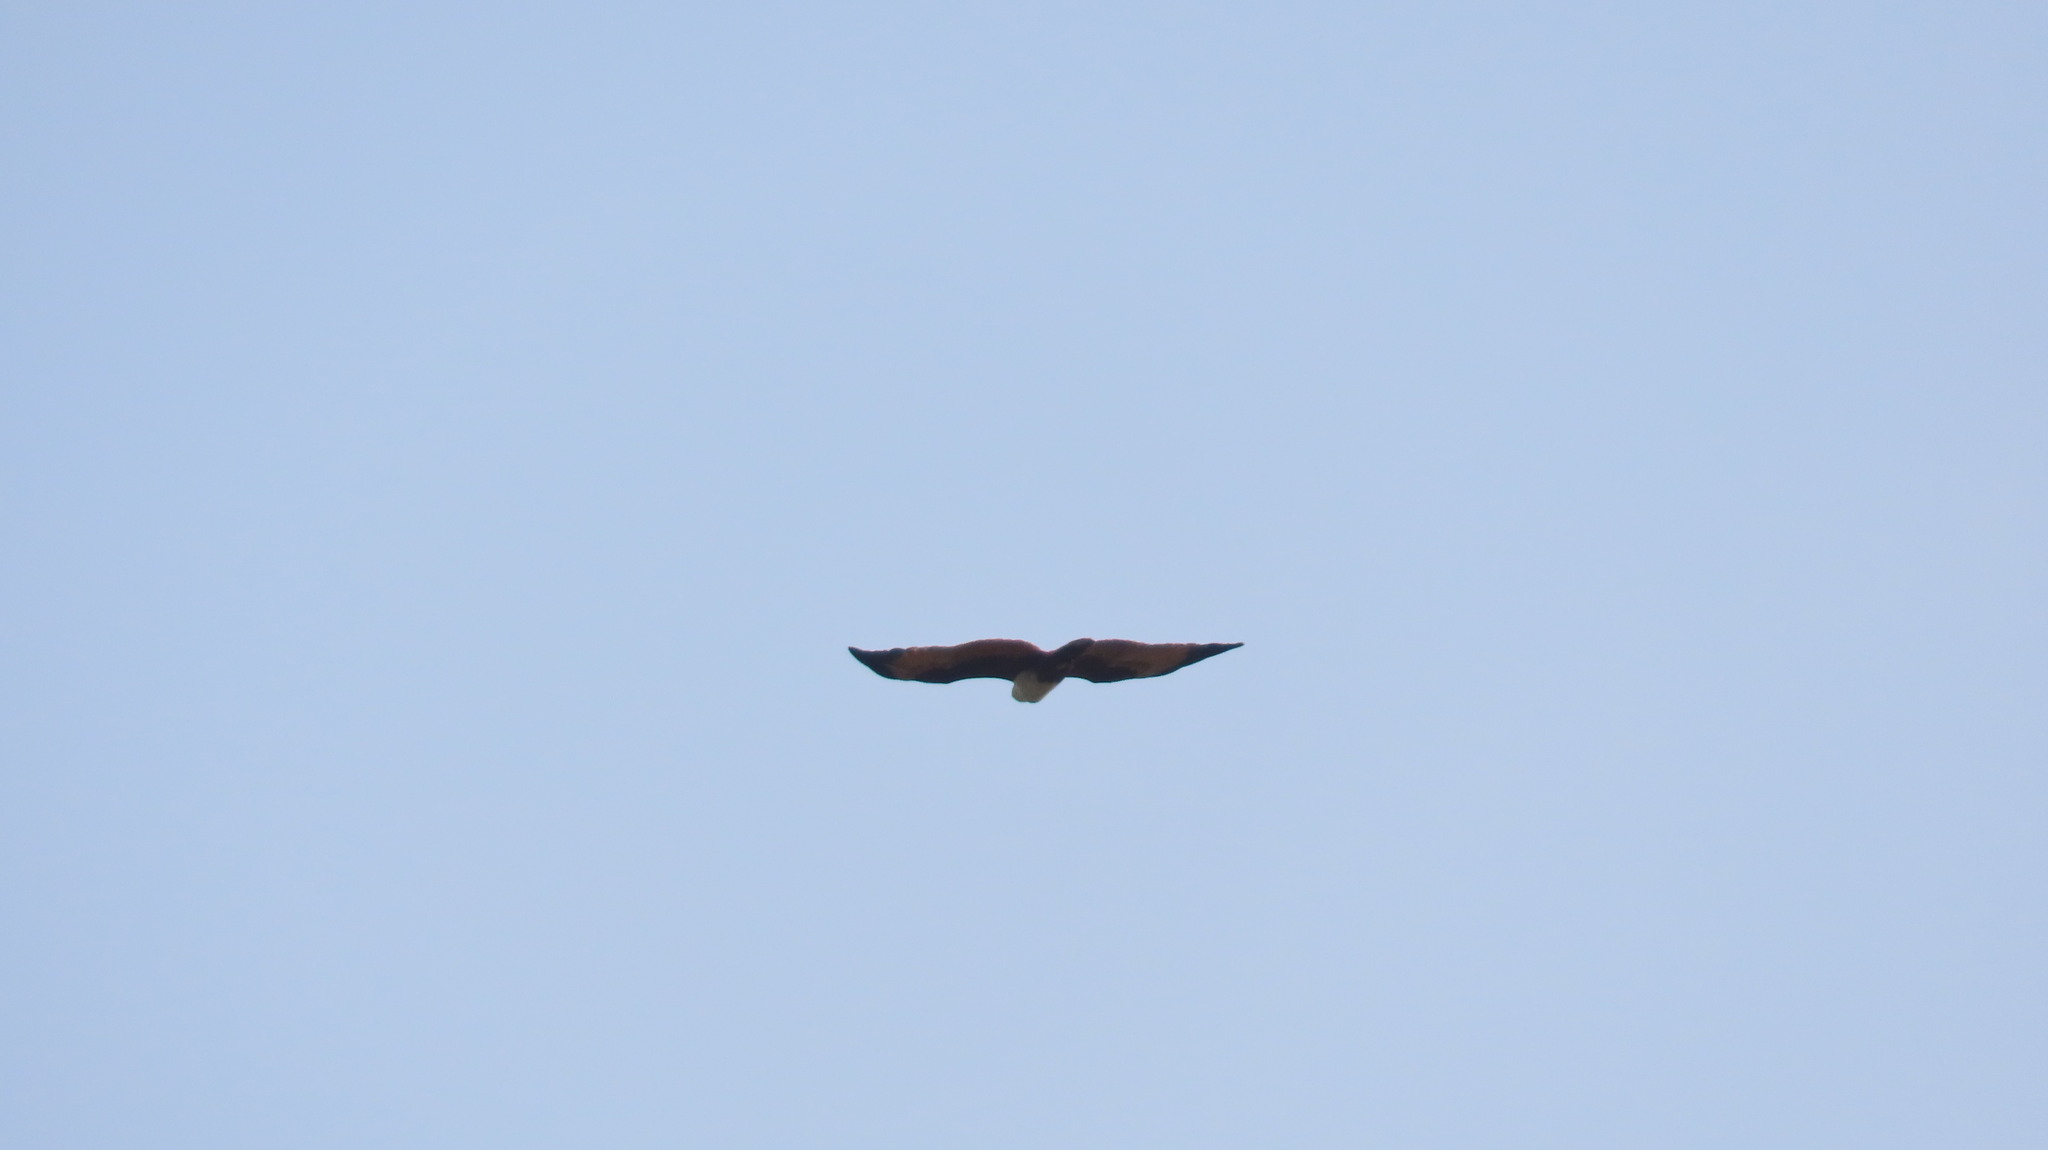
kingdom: Animalia
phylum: Chordata
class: Aves
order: Accipitriformes
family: Accipitridae
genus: Haliastur
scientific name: Haliastur indus
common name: Brahminy kite
